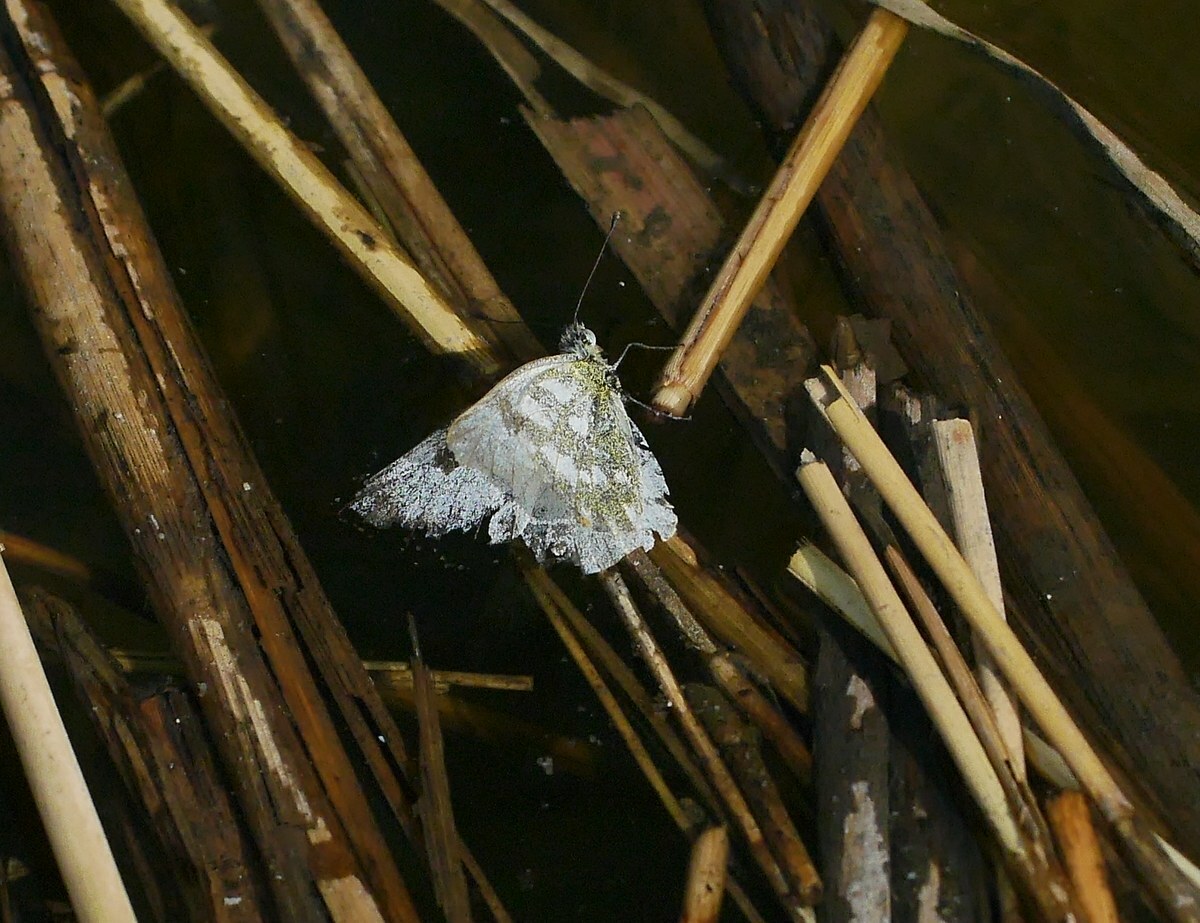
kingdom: Animalia
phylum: Arthropoda
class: Insecta
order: Lepidoptera
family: Pieridae
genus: Pontia
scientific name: Pontia edusa
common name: Eastern bath white
